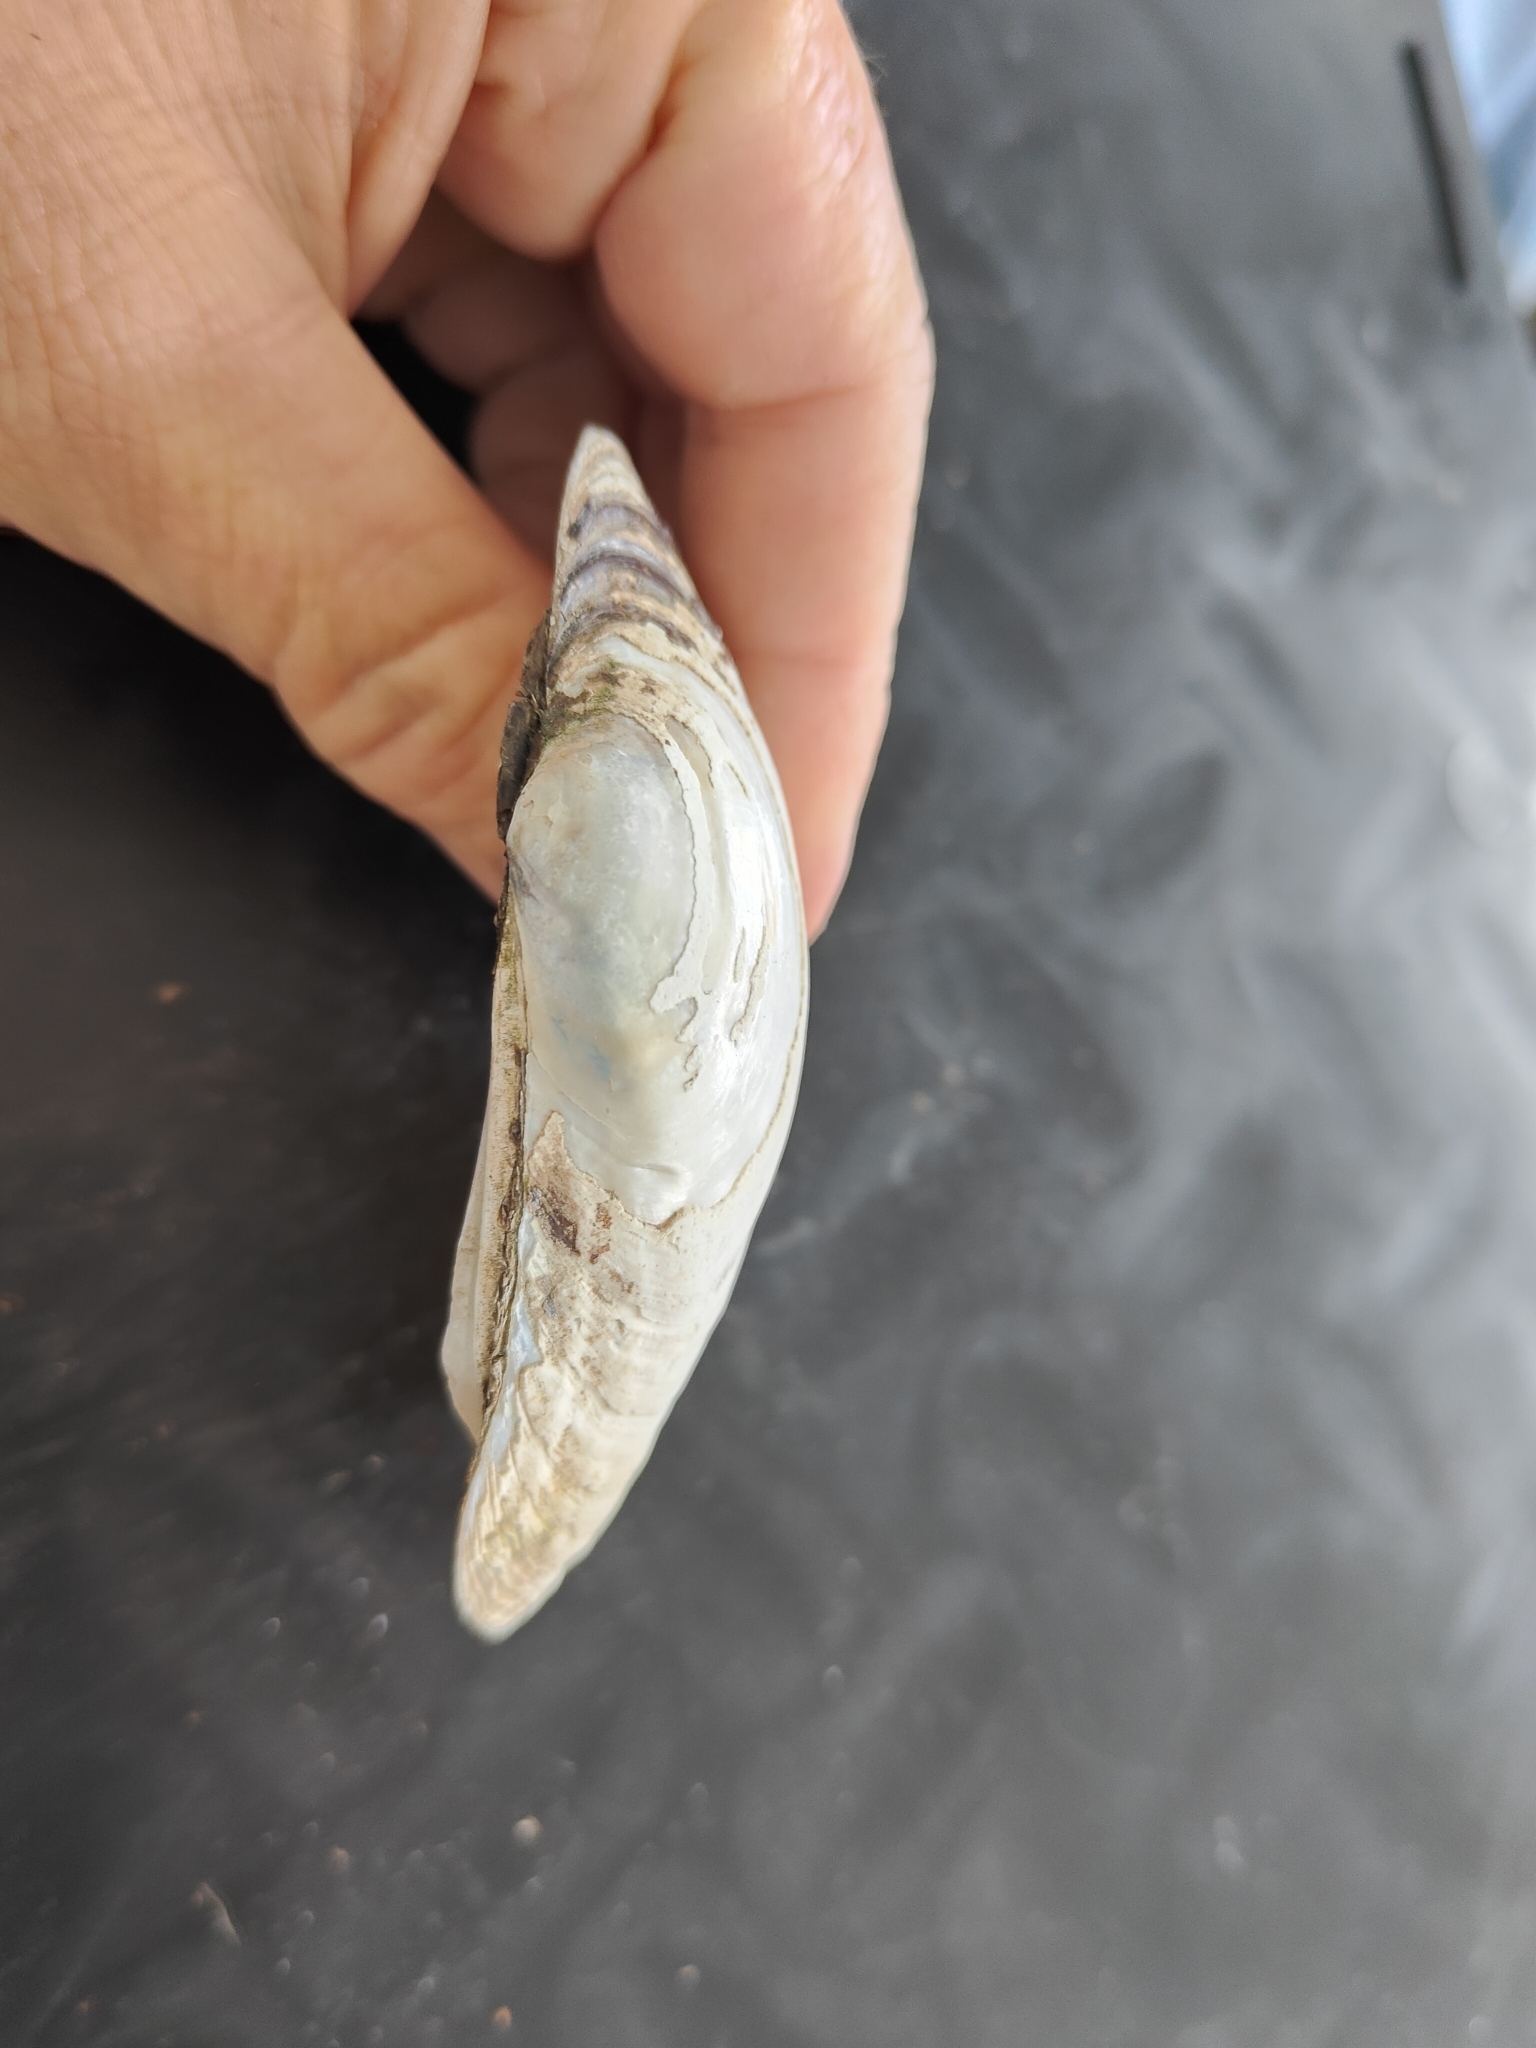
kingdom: Animalia
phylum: Mollusca
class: Bivalvia
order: Unionida
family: Unionidae
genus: Lampsilis
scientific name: Lampsilis cardium
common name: Plain pocketbook
